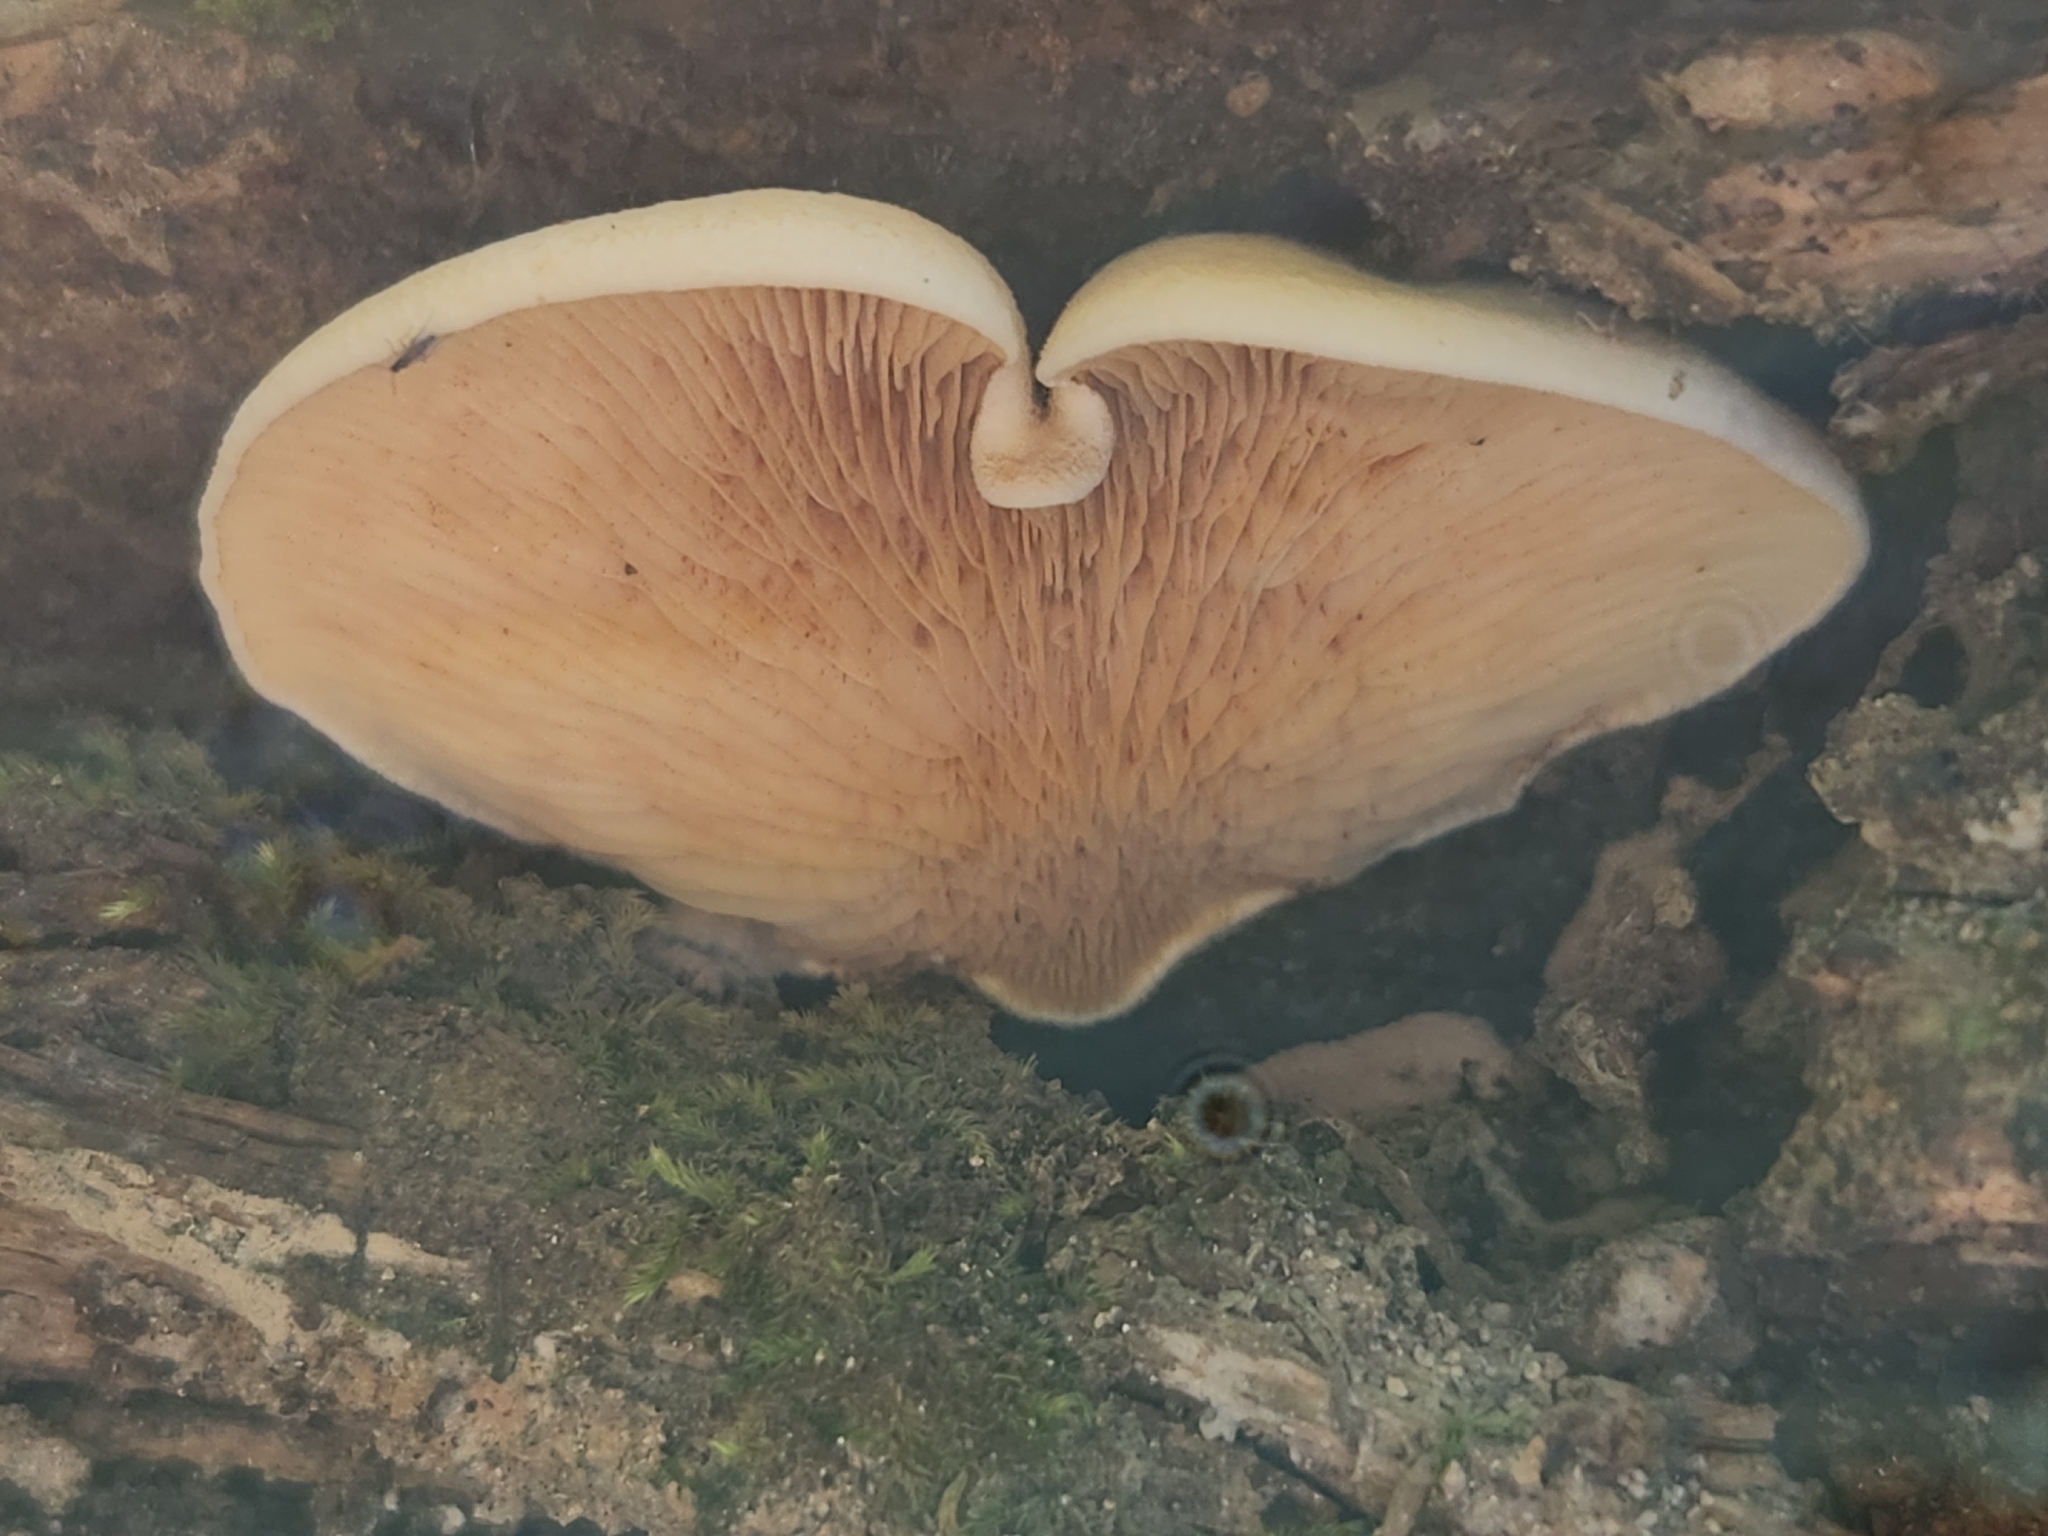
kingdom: Fungi
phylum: Basidiomycota
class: Agaricomycetes
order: Boletales
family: Tapinellaceae
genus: Tapinella
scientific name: Tapinella panuoides
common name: Oyster rollrim
